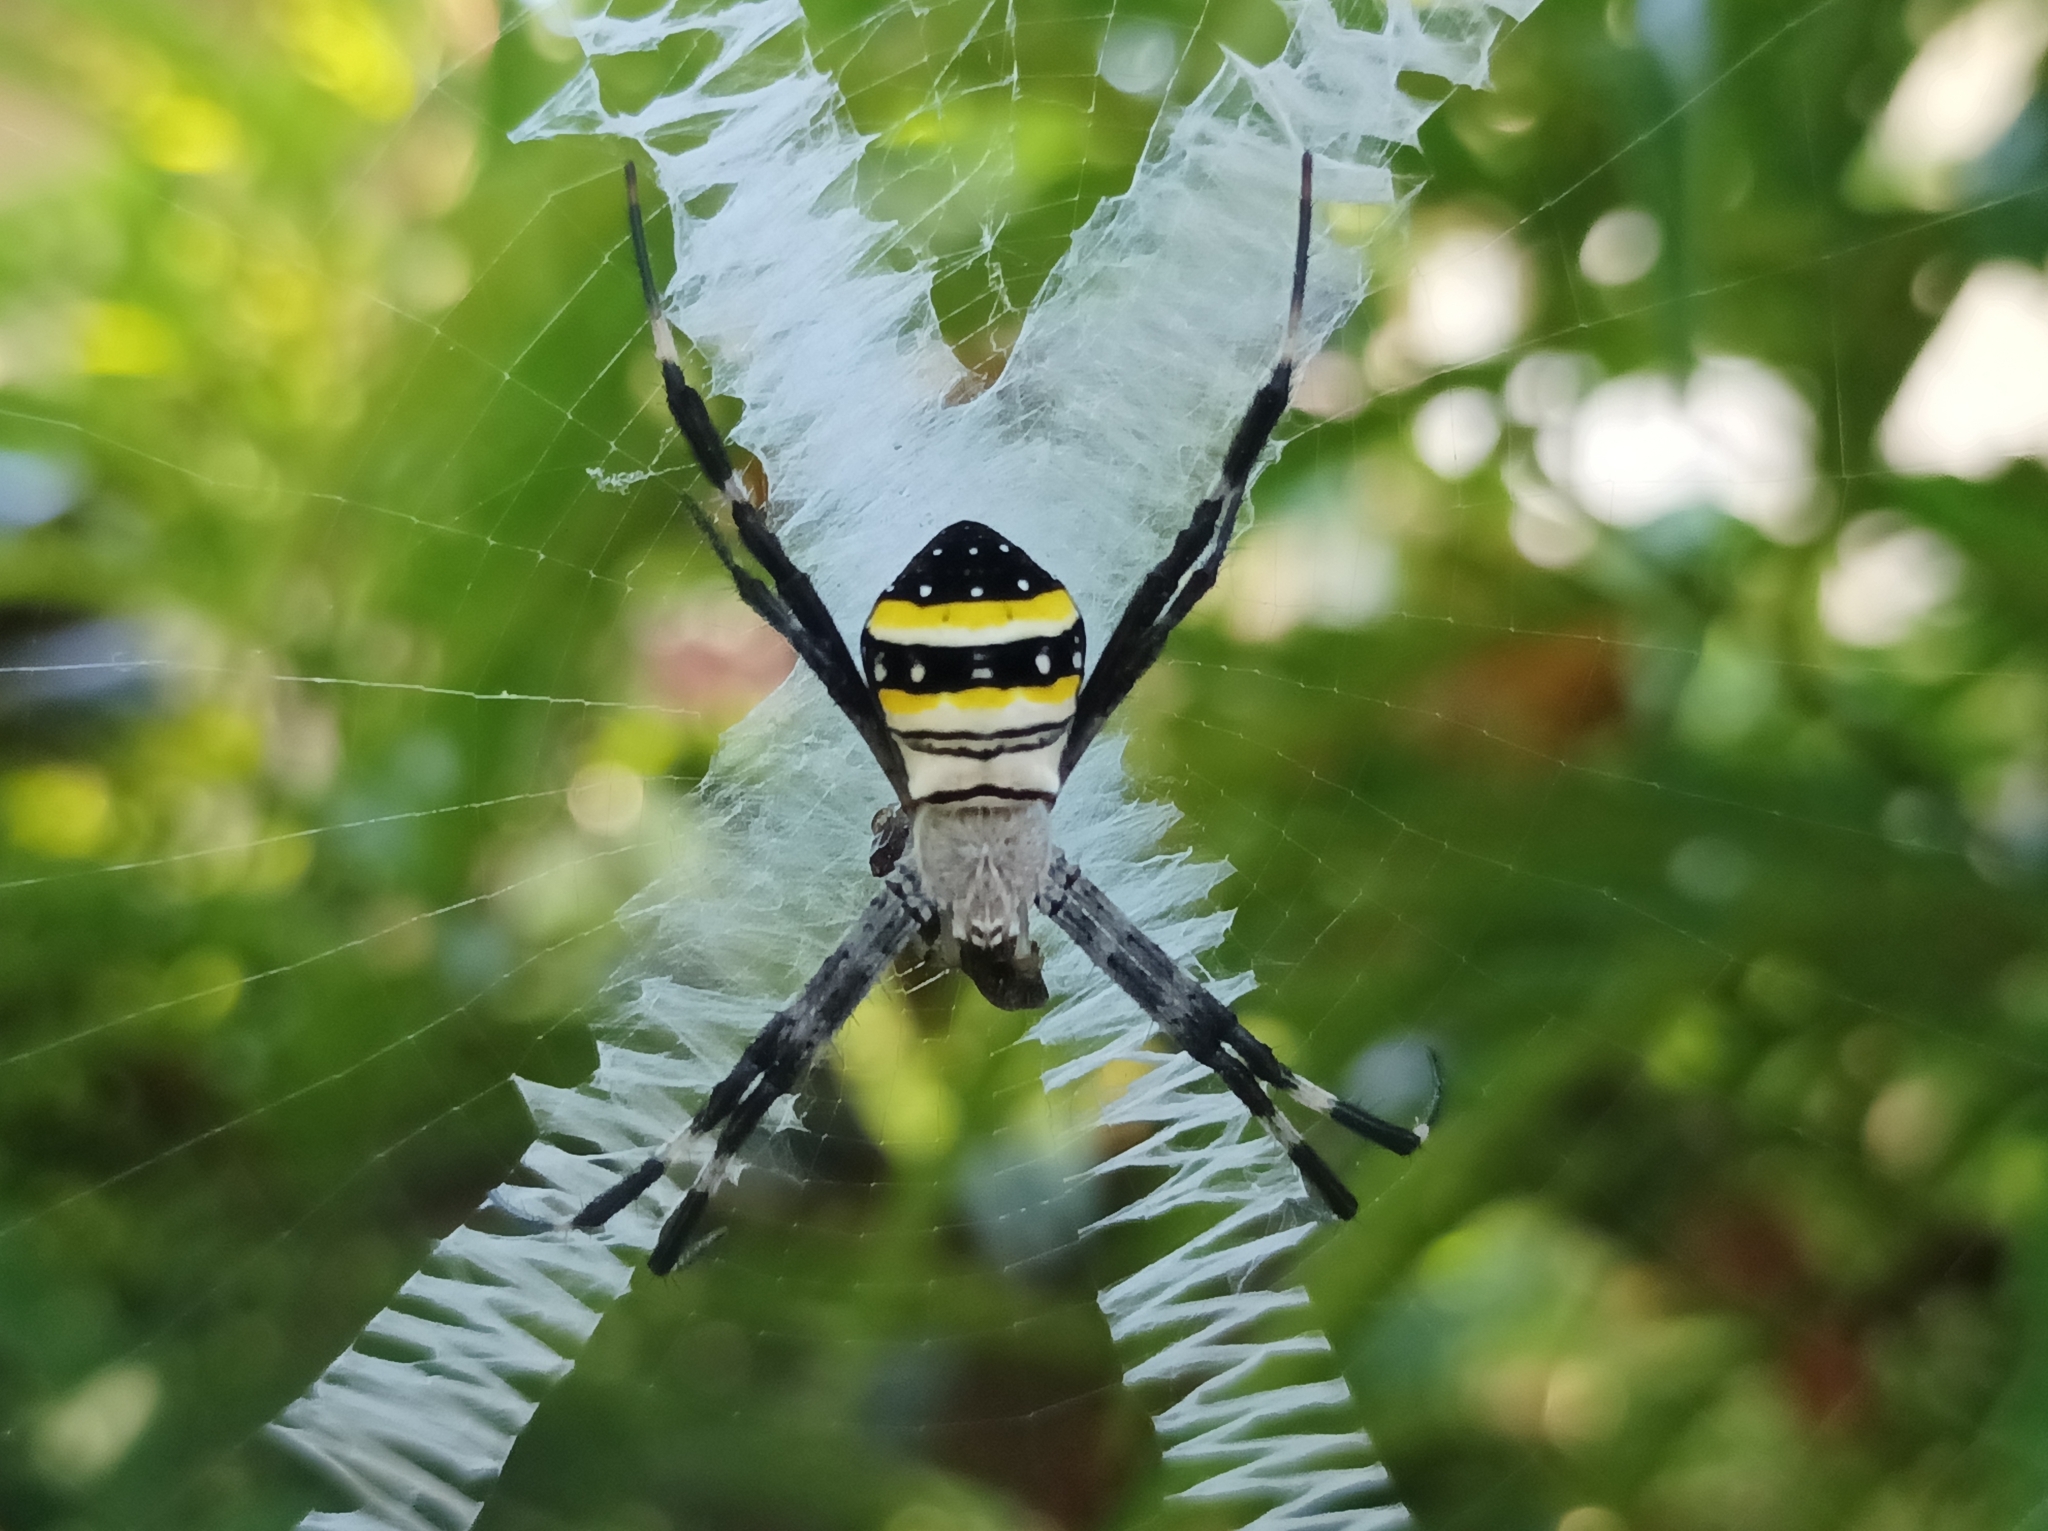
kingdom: Animalia
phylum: Arthropoda
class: Arachnida
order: Araneae
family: Araneidae
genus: Argiope
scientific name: Argiope caledonia
